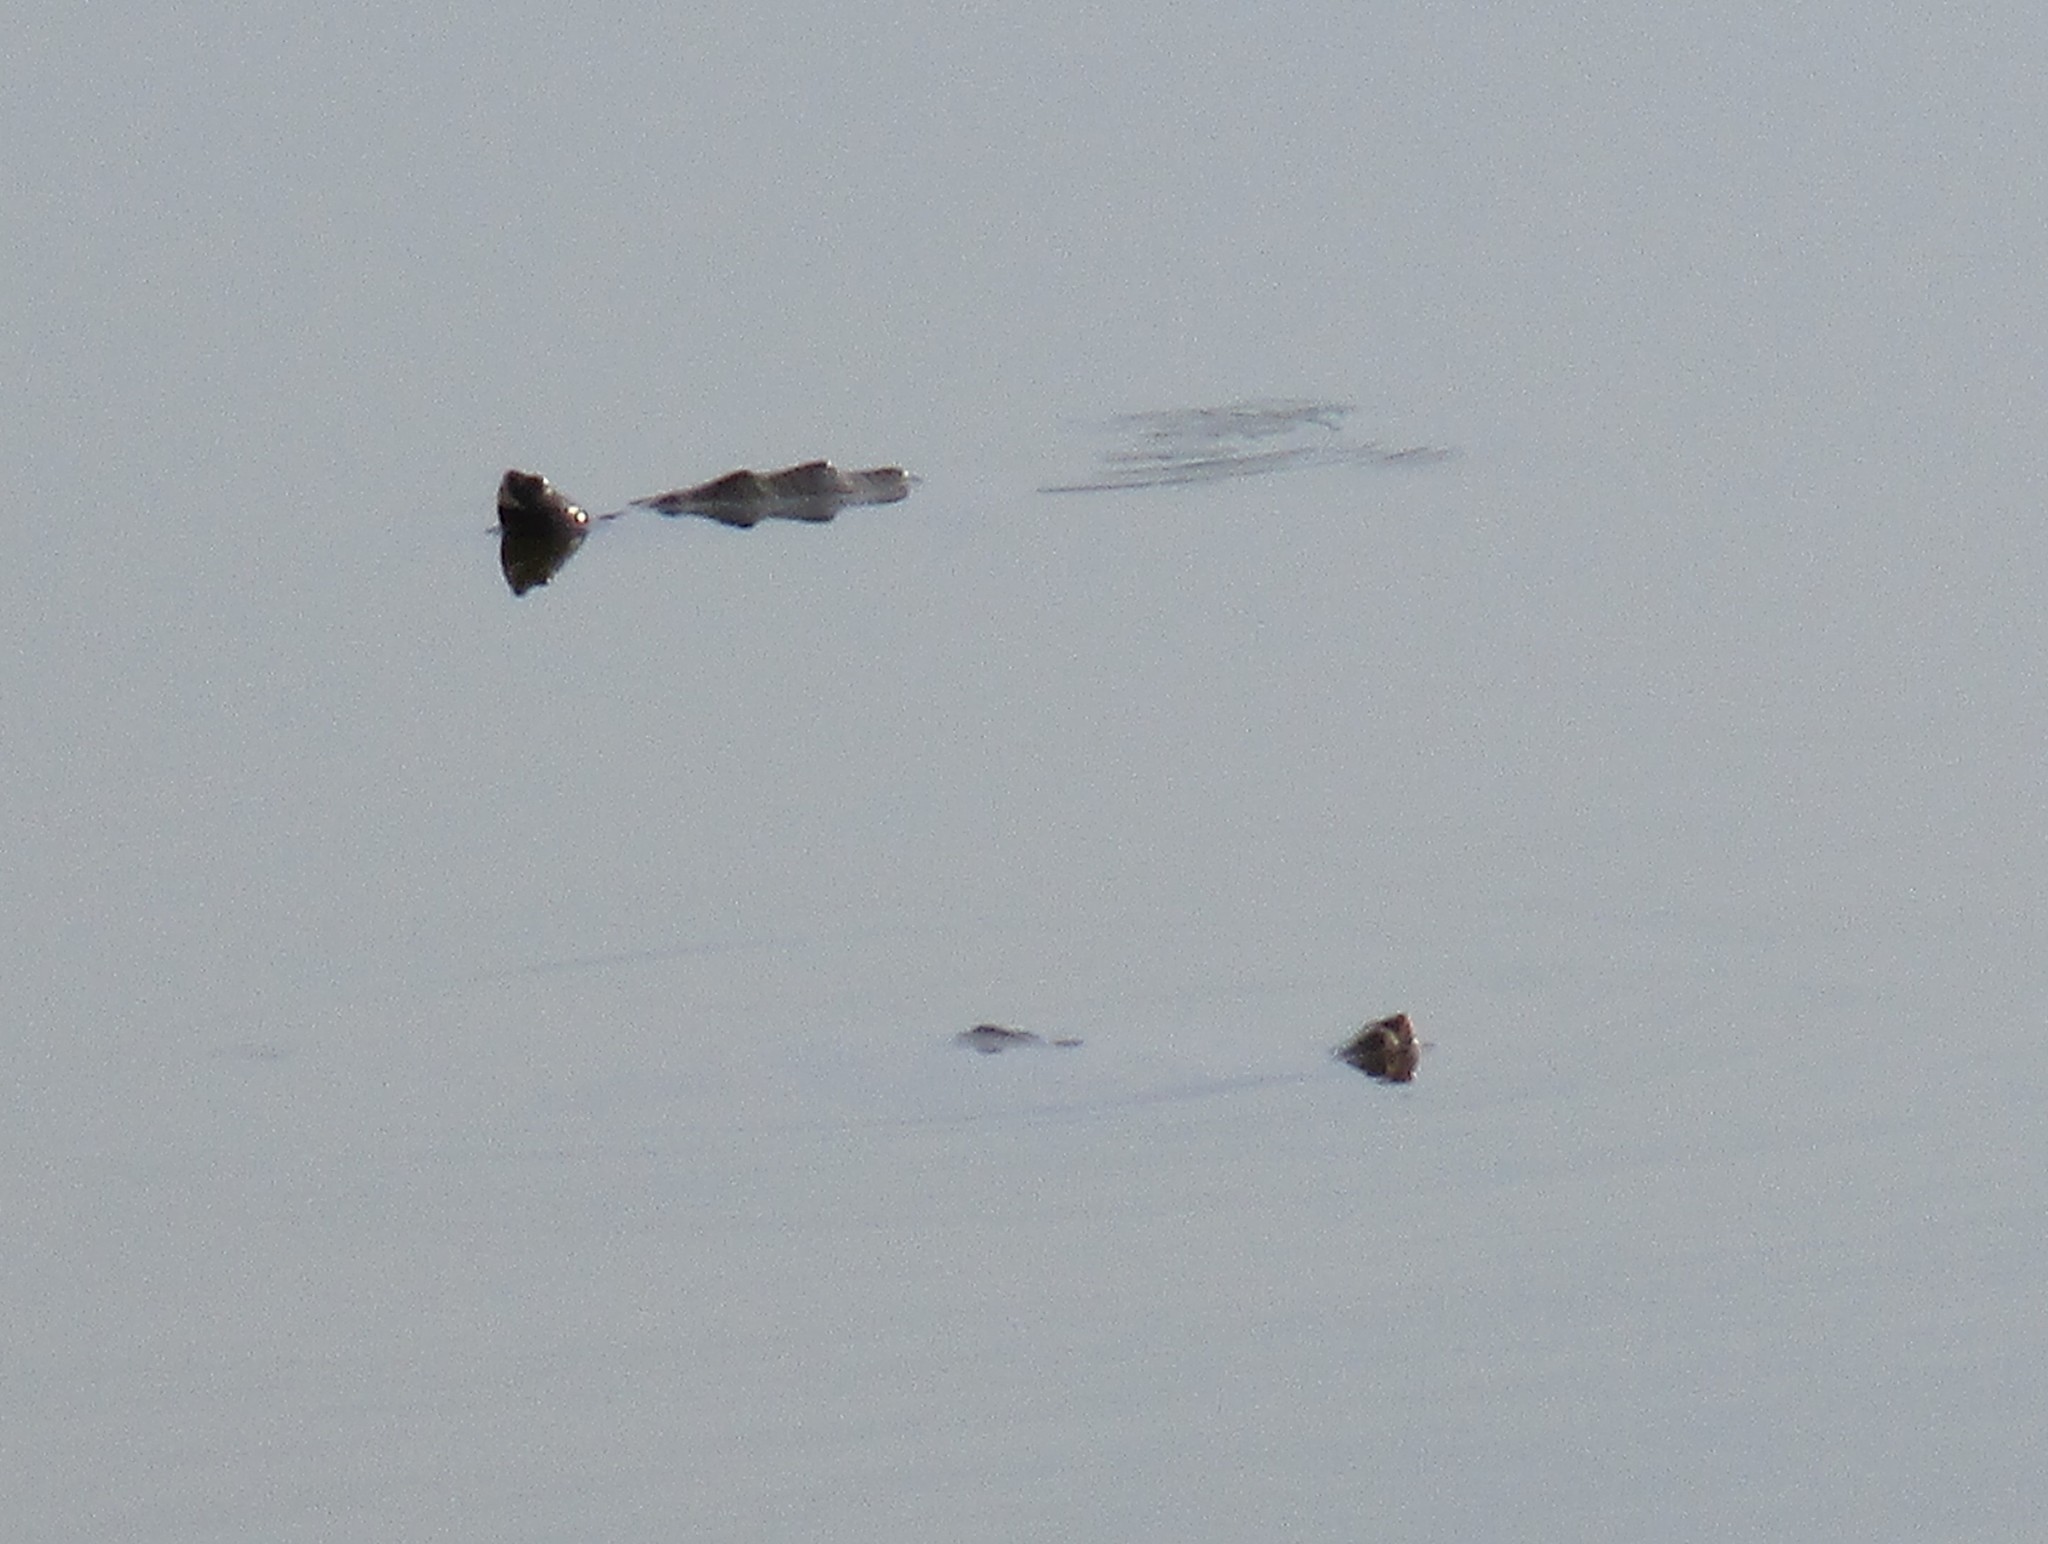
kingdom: Animalia
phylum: Chordata
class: Testudines
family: Emydidae
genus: Malaclemys
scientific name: Malaclemys terrapin
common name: Diamondback terrapin
